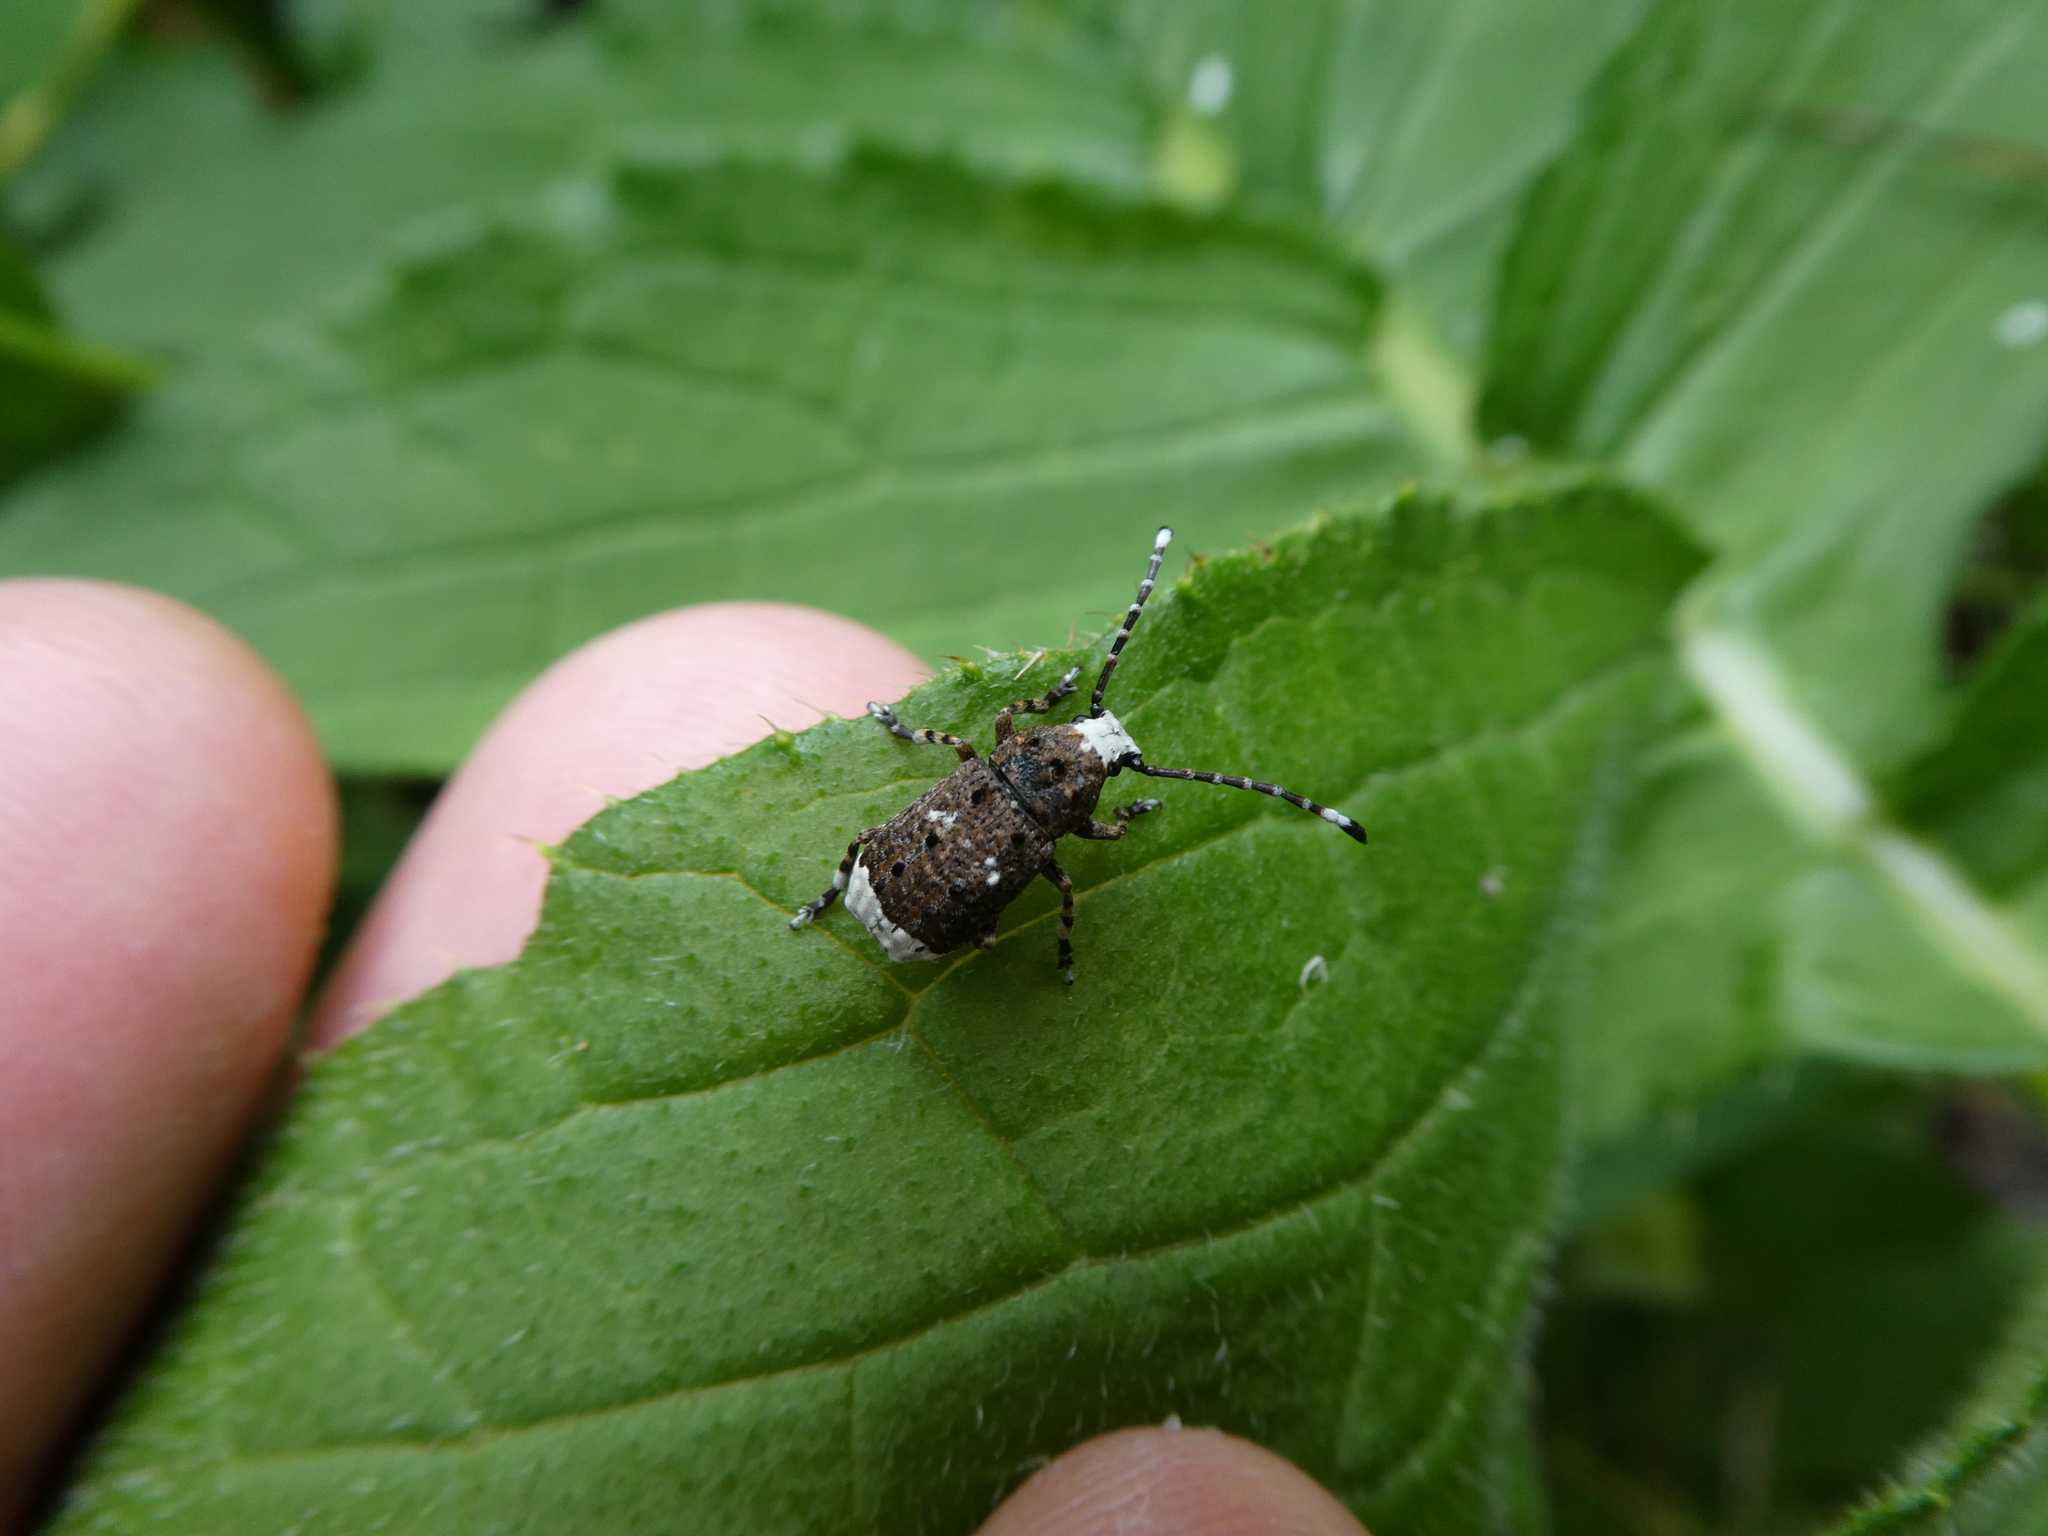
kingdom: Animalia
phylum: Arthropoda
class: Insecta
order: Coleoptera
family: Anthribidae
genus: Platystomos
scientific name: Platystomos albinus
